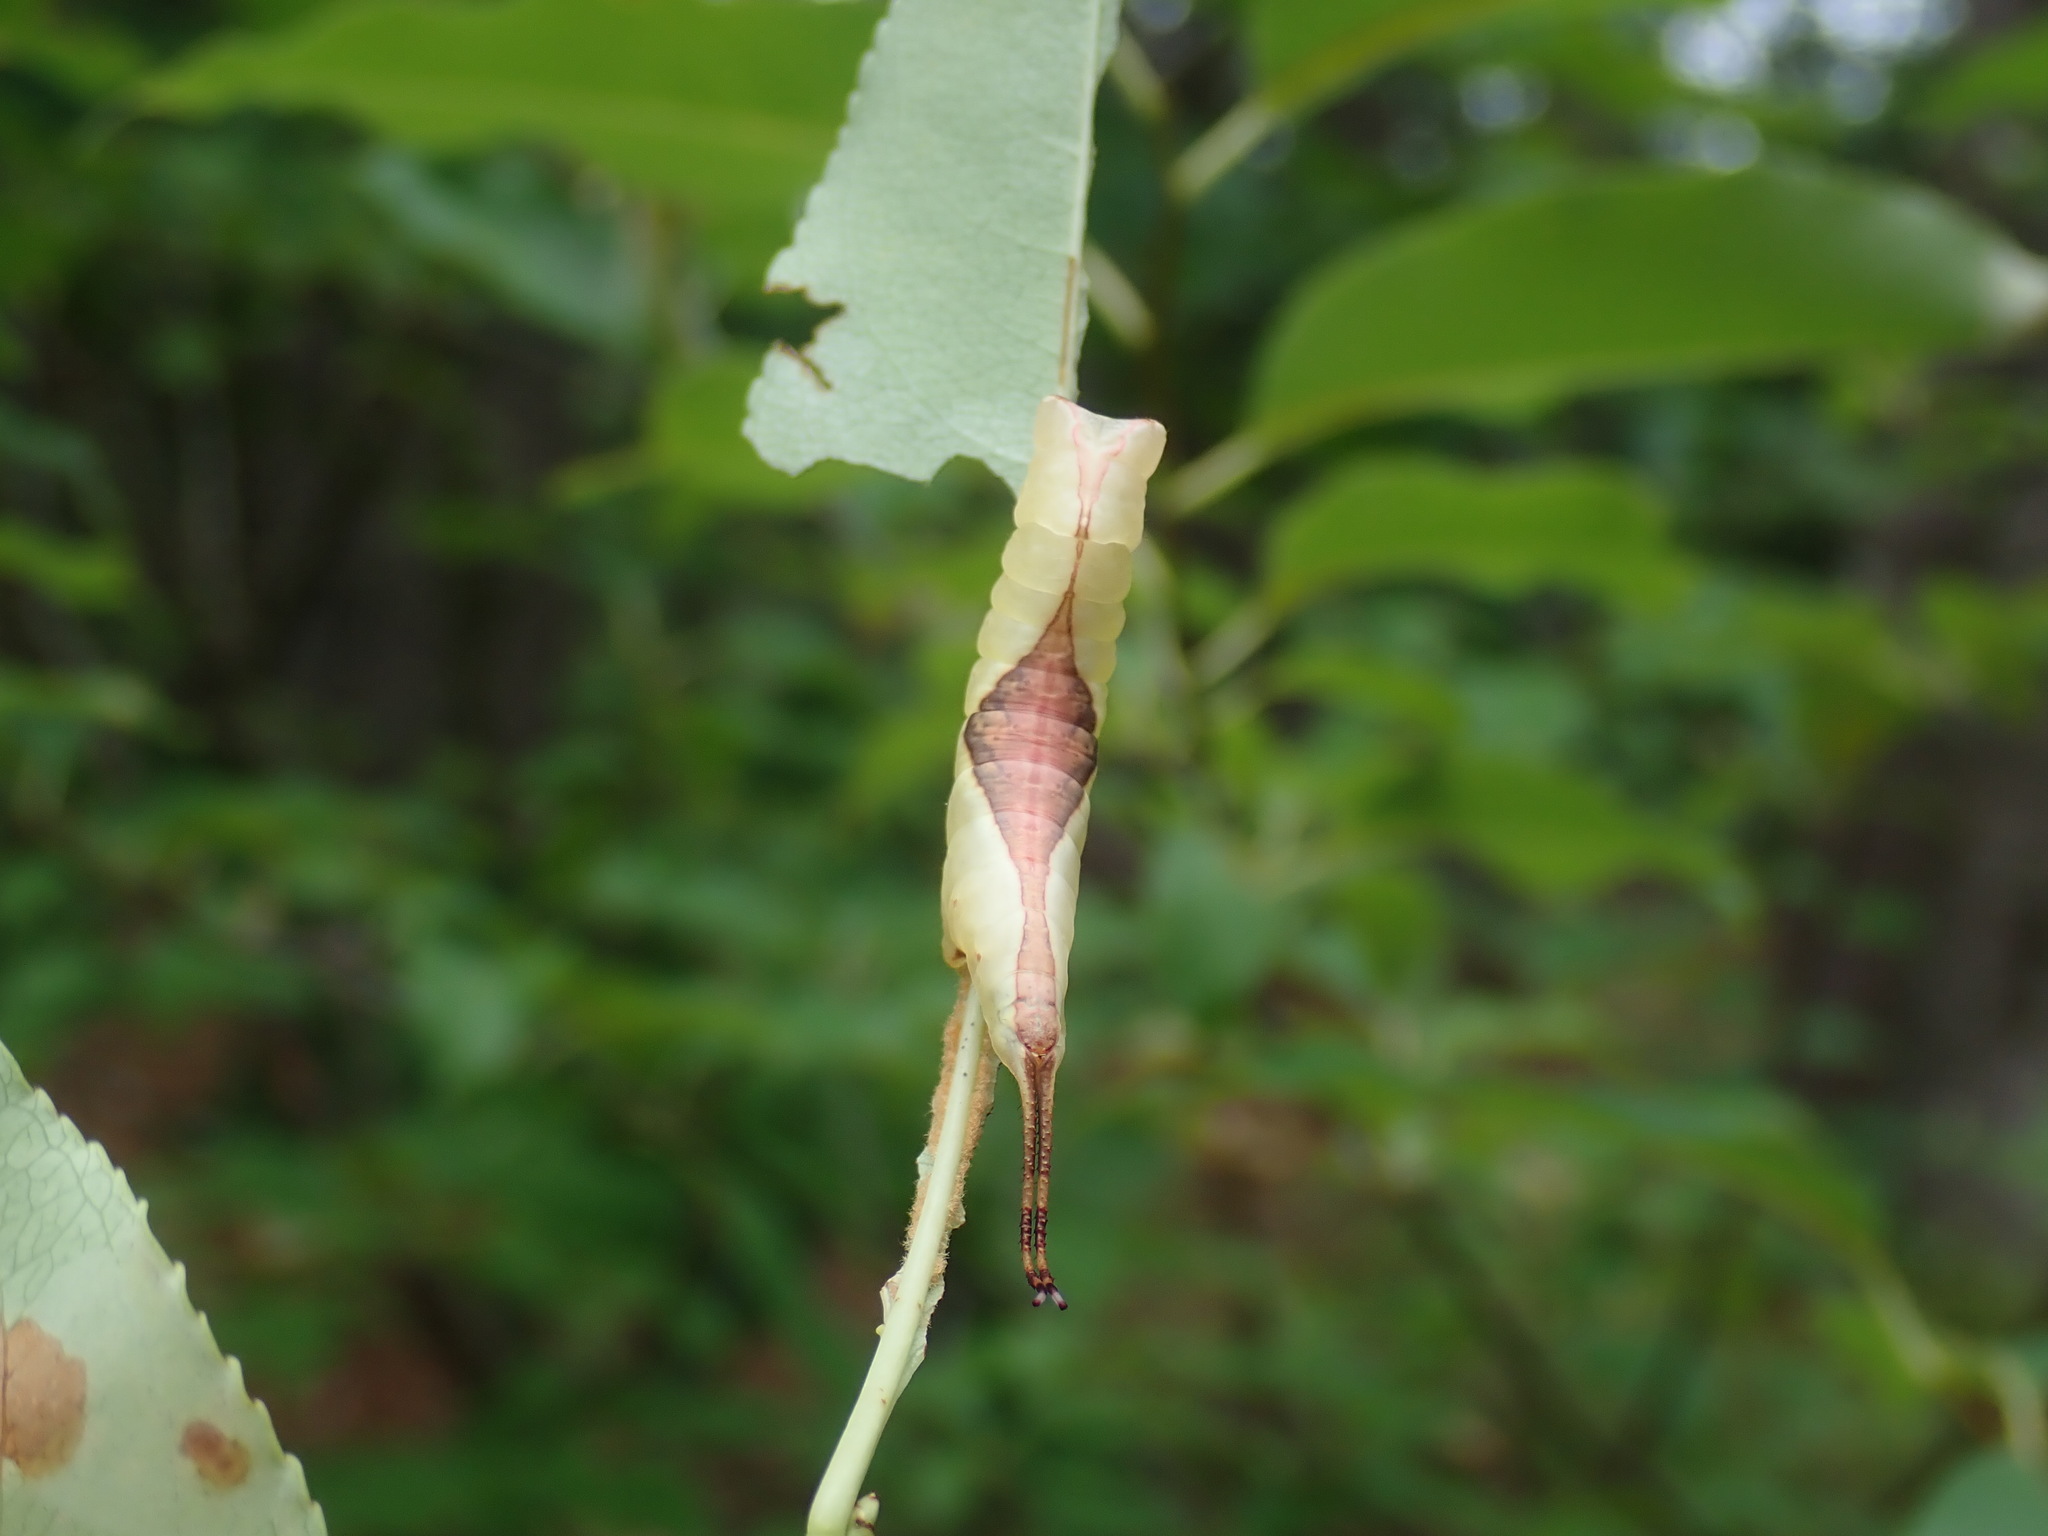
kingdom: Animalia
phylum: Arthropoda
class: Insecta
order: Lepidoptera
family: Notodontidae
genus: Furcula
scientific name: Furcula borealis
